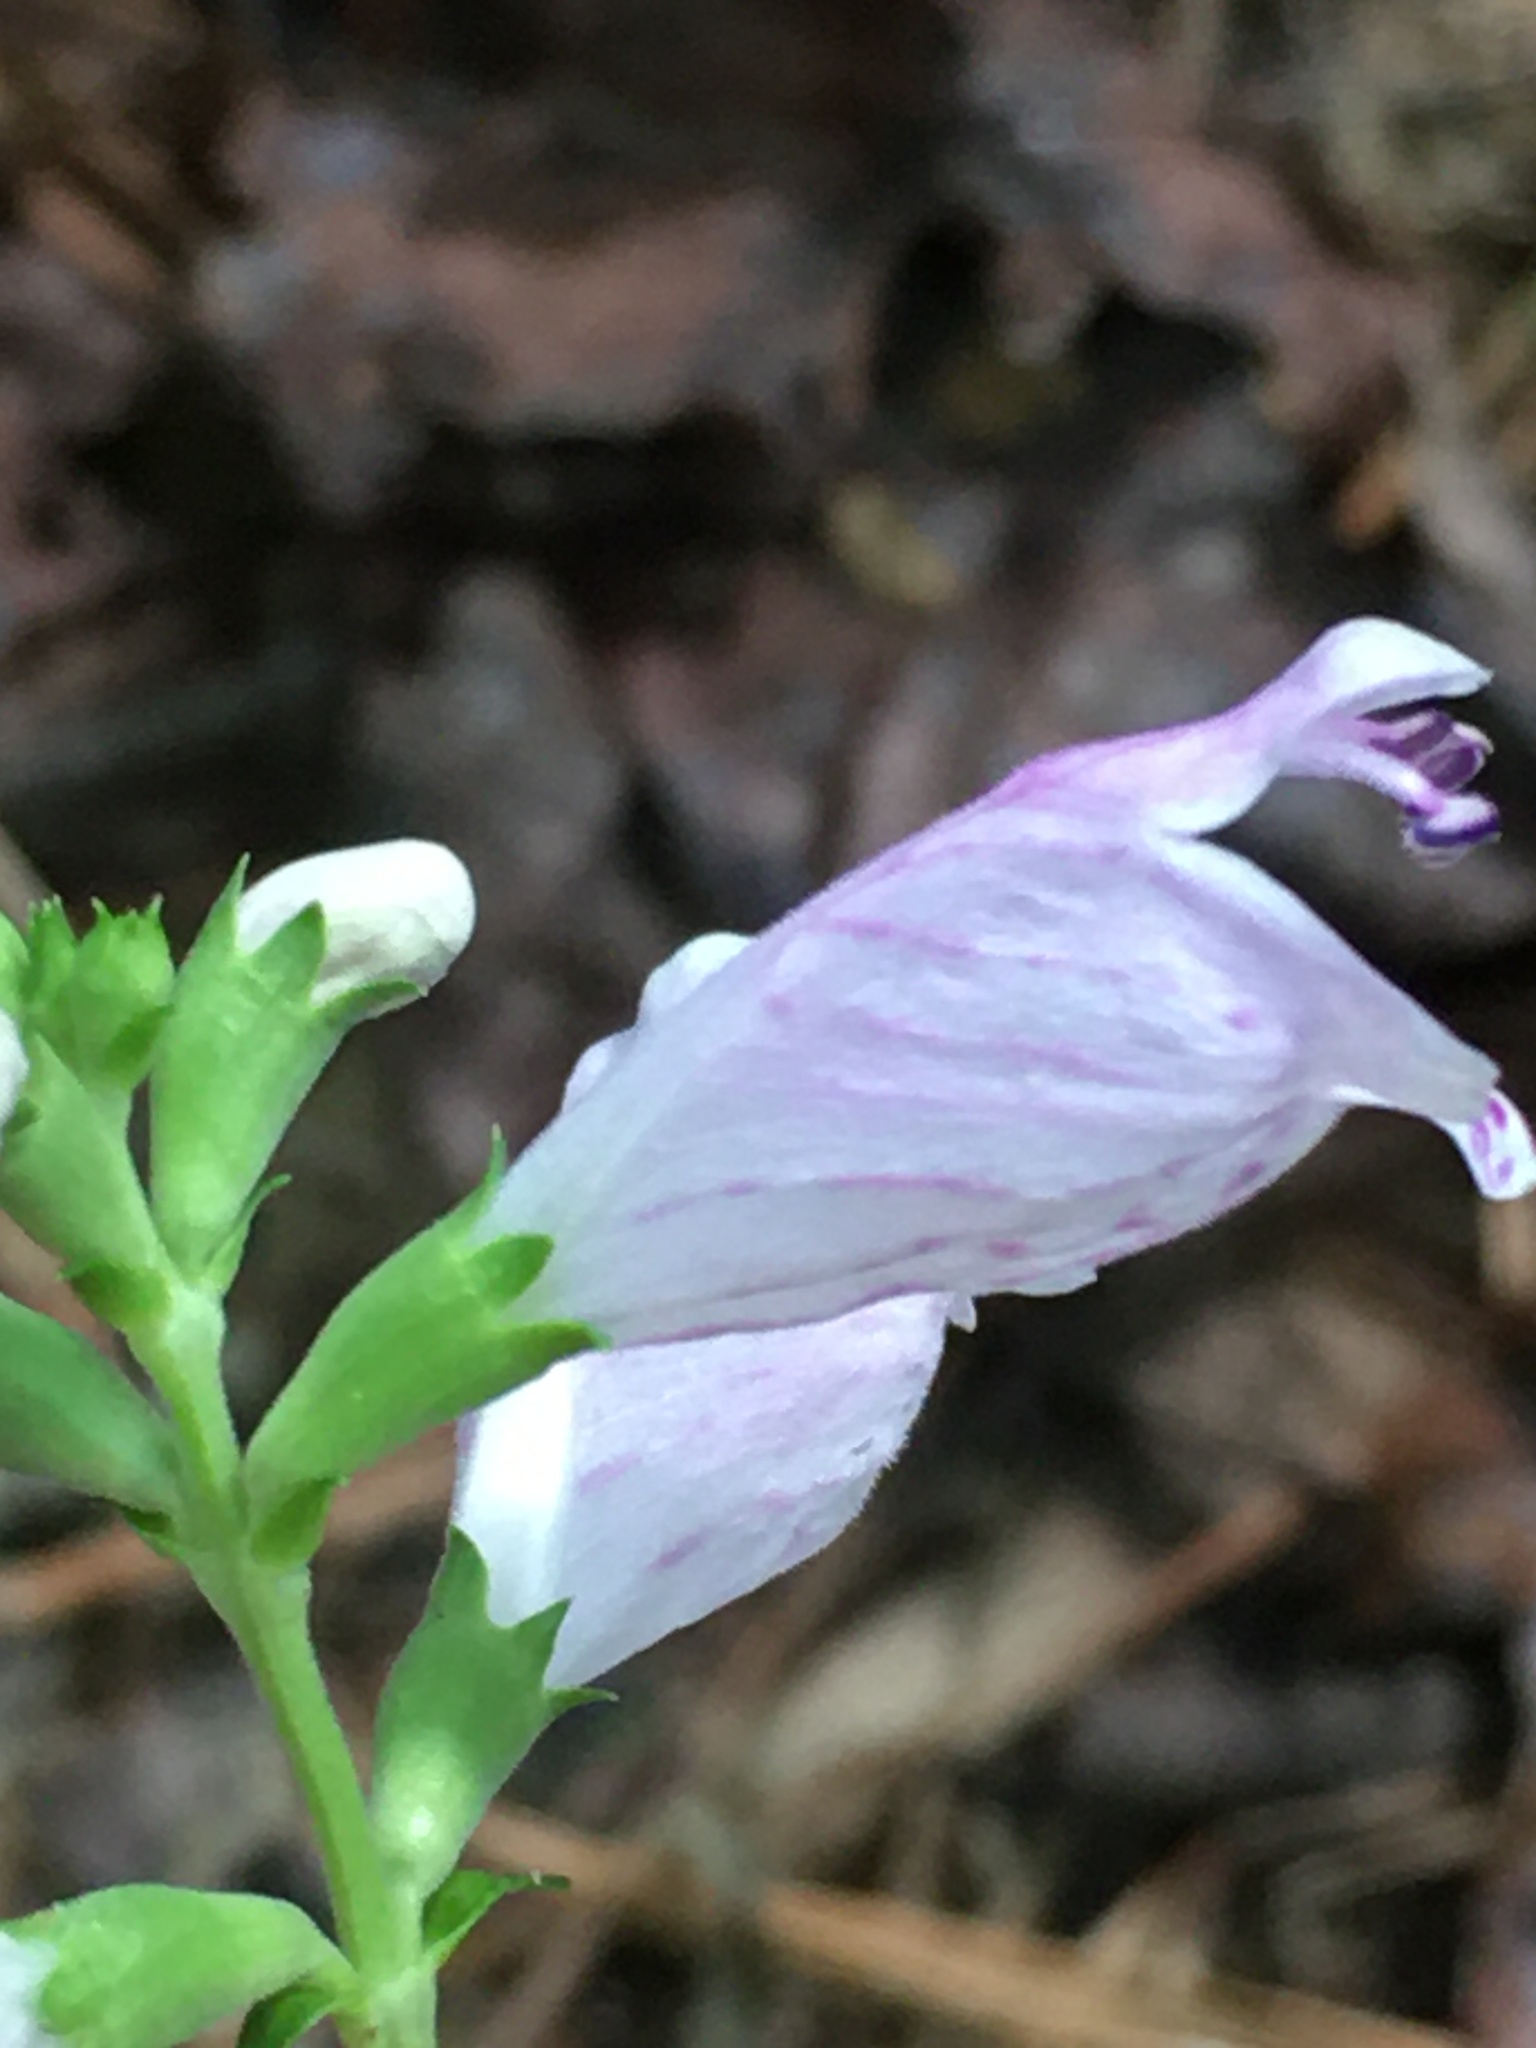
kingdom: Plantae
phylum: Tracheophyta
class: Magnoliopsida
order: Lamiales
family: Lamiaceae
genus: Physostegia
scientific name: Physostegia virginiana
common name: Obedient-plant
